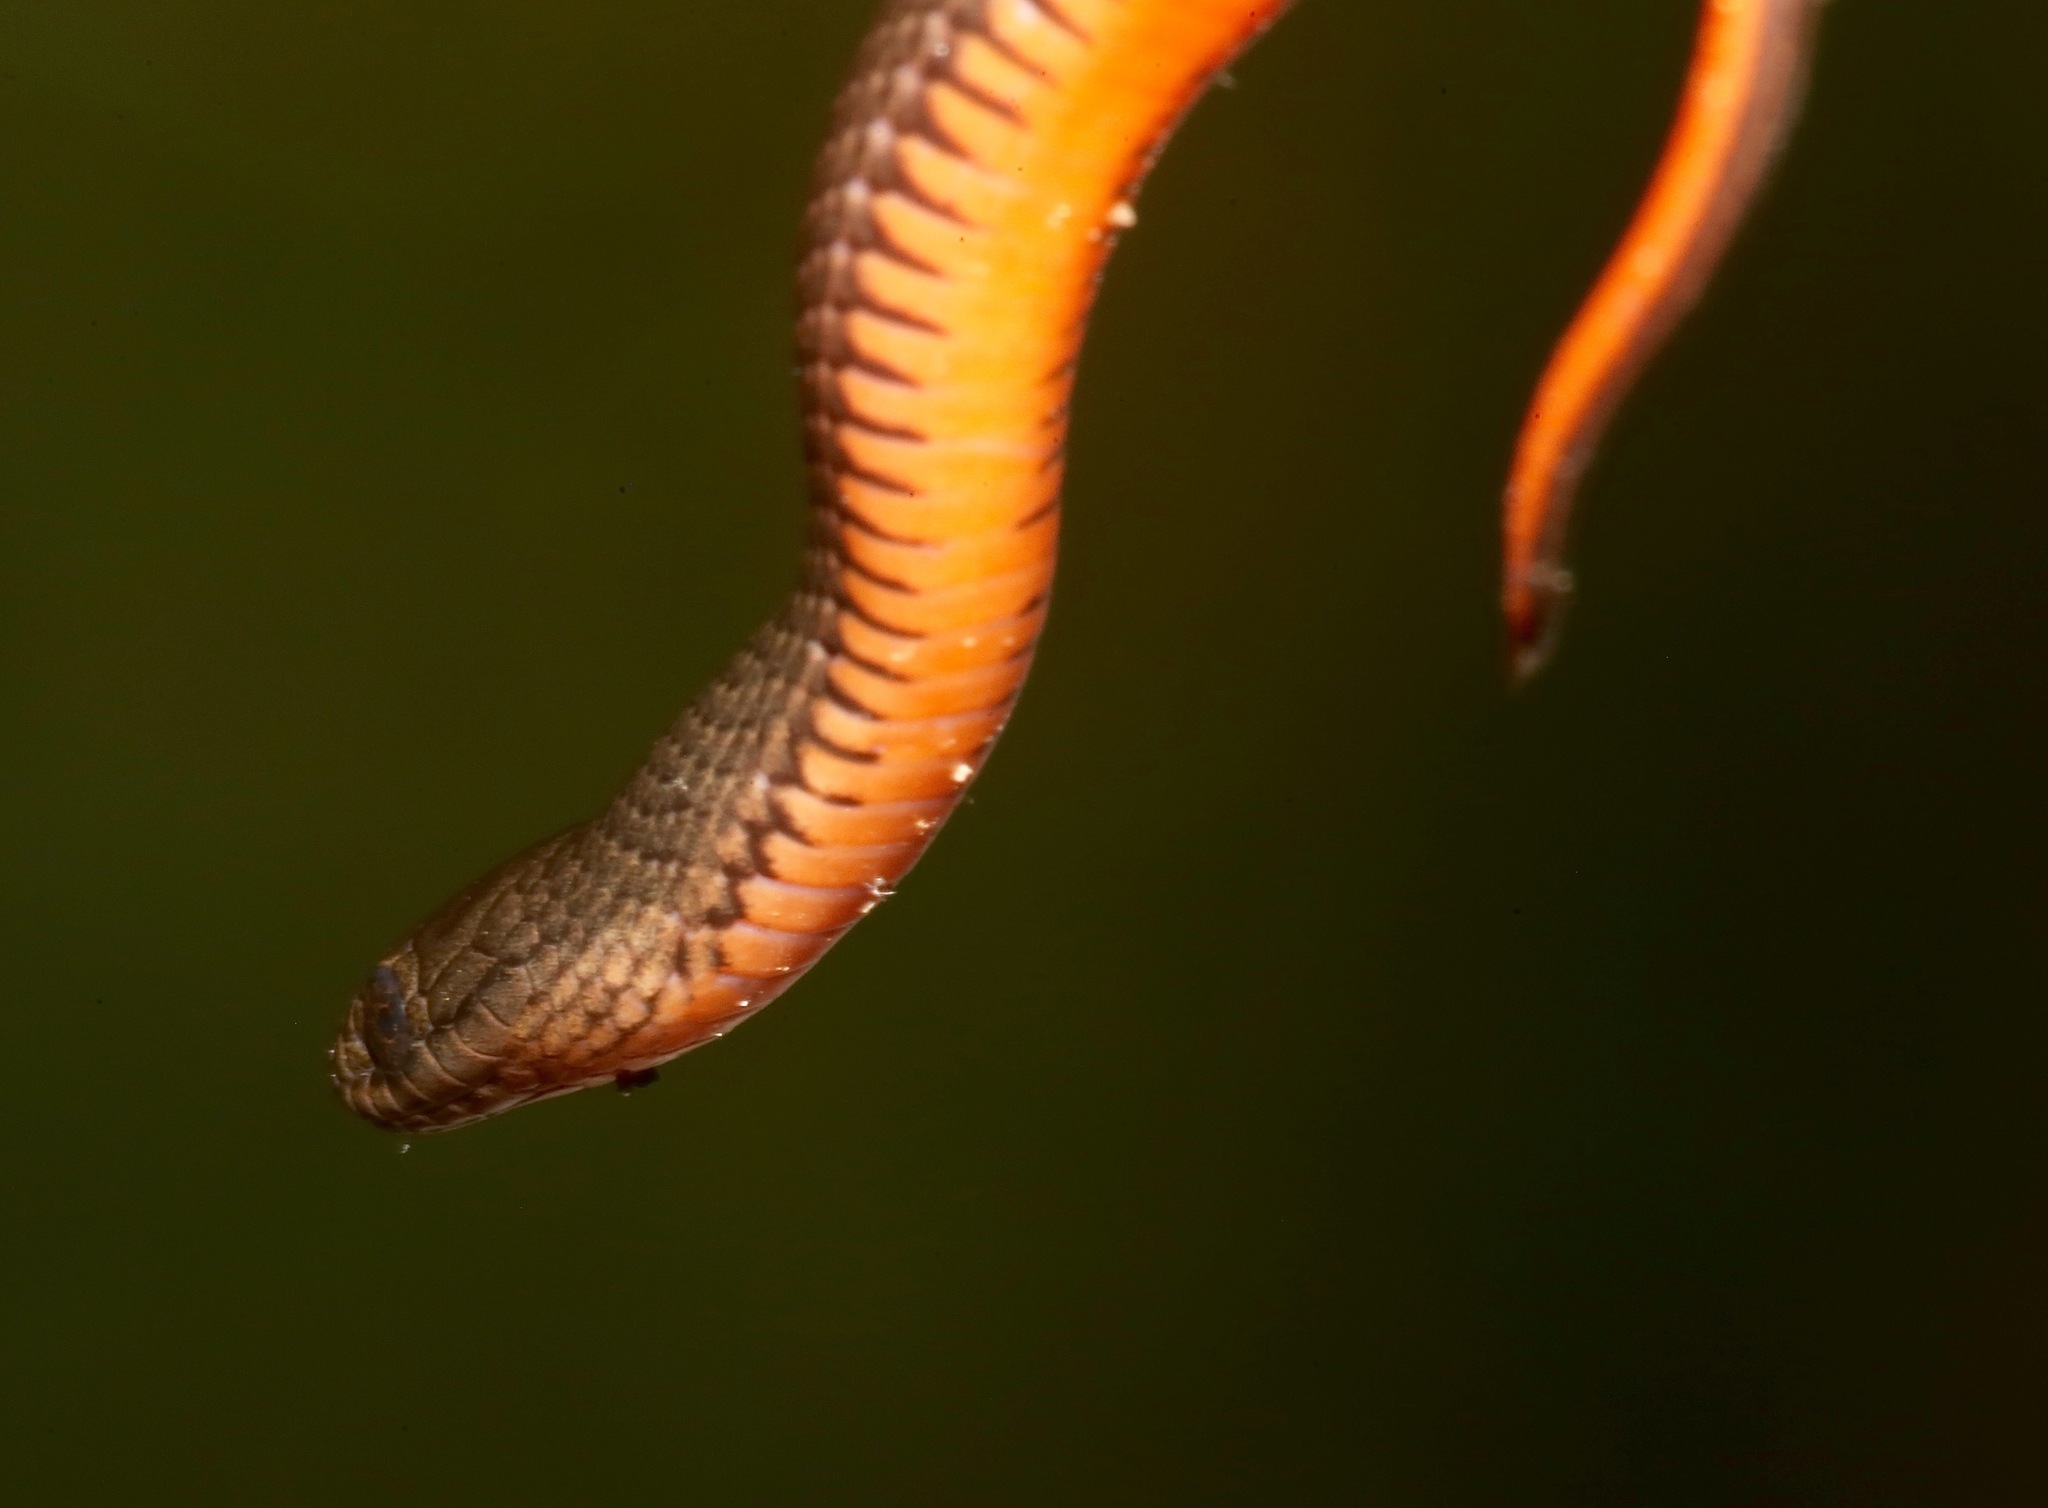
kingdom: Animalia
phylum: Chordata
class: Squamata
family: Colubridae
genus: Liodytes
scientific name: Liodytes pygaea
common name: Black swamp snake
